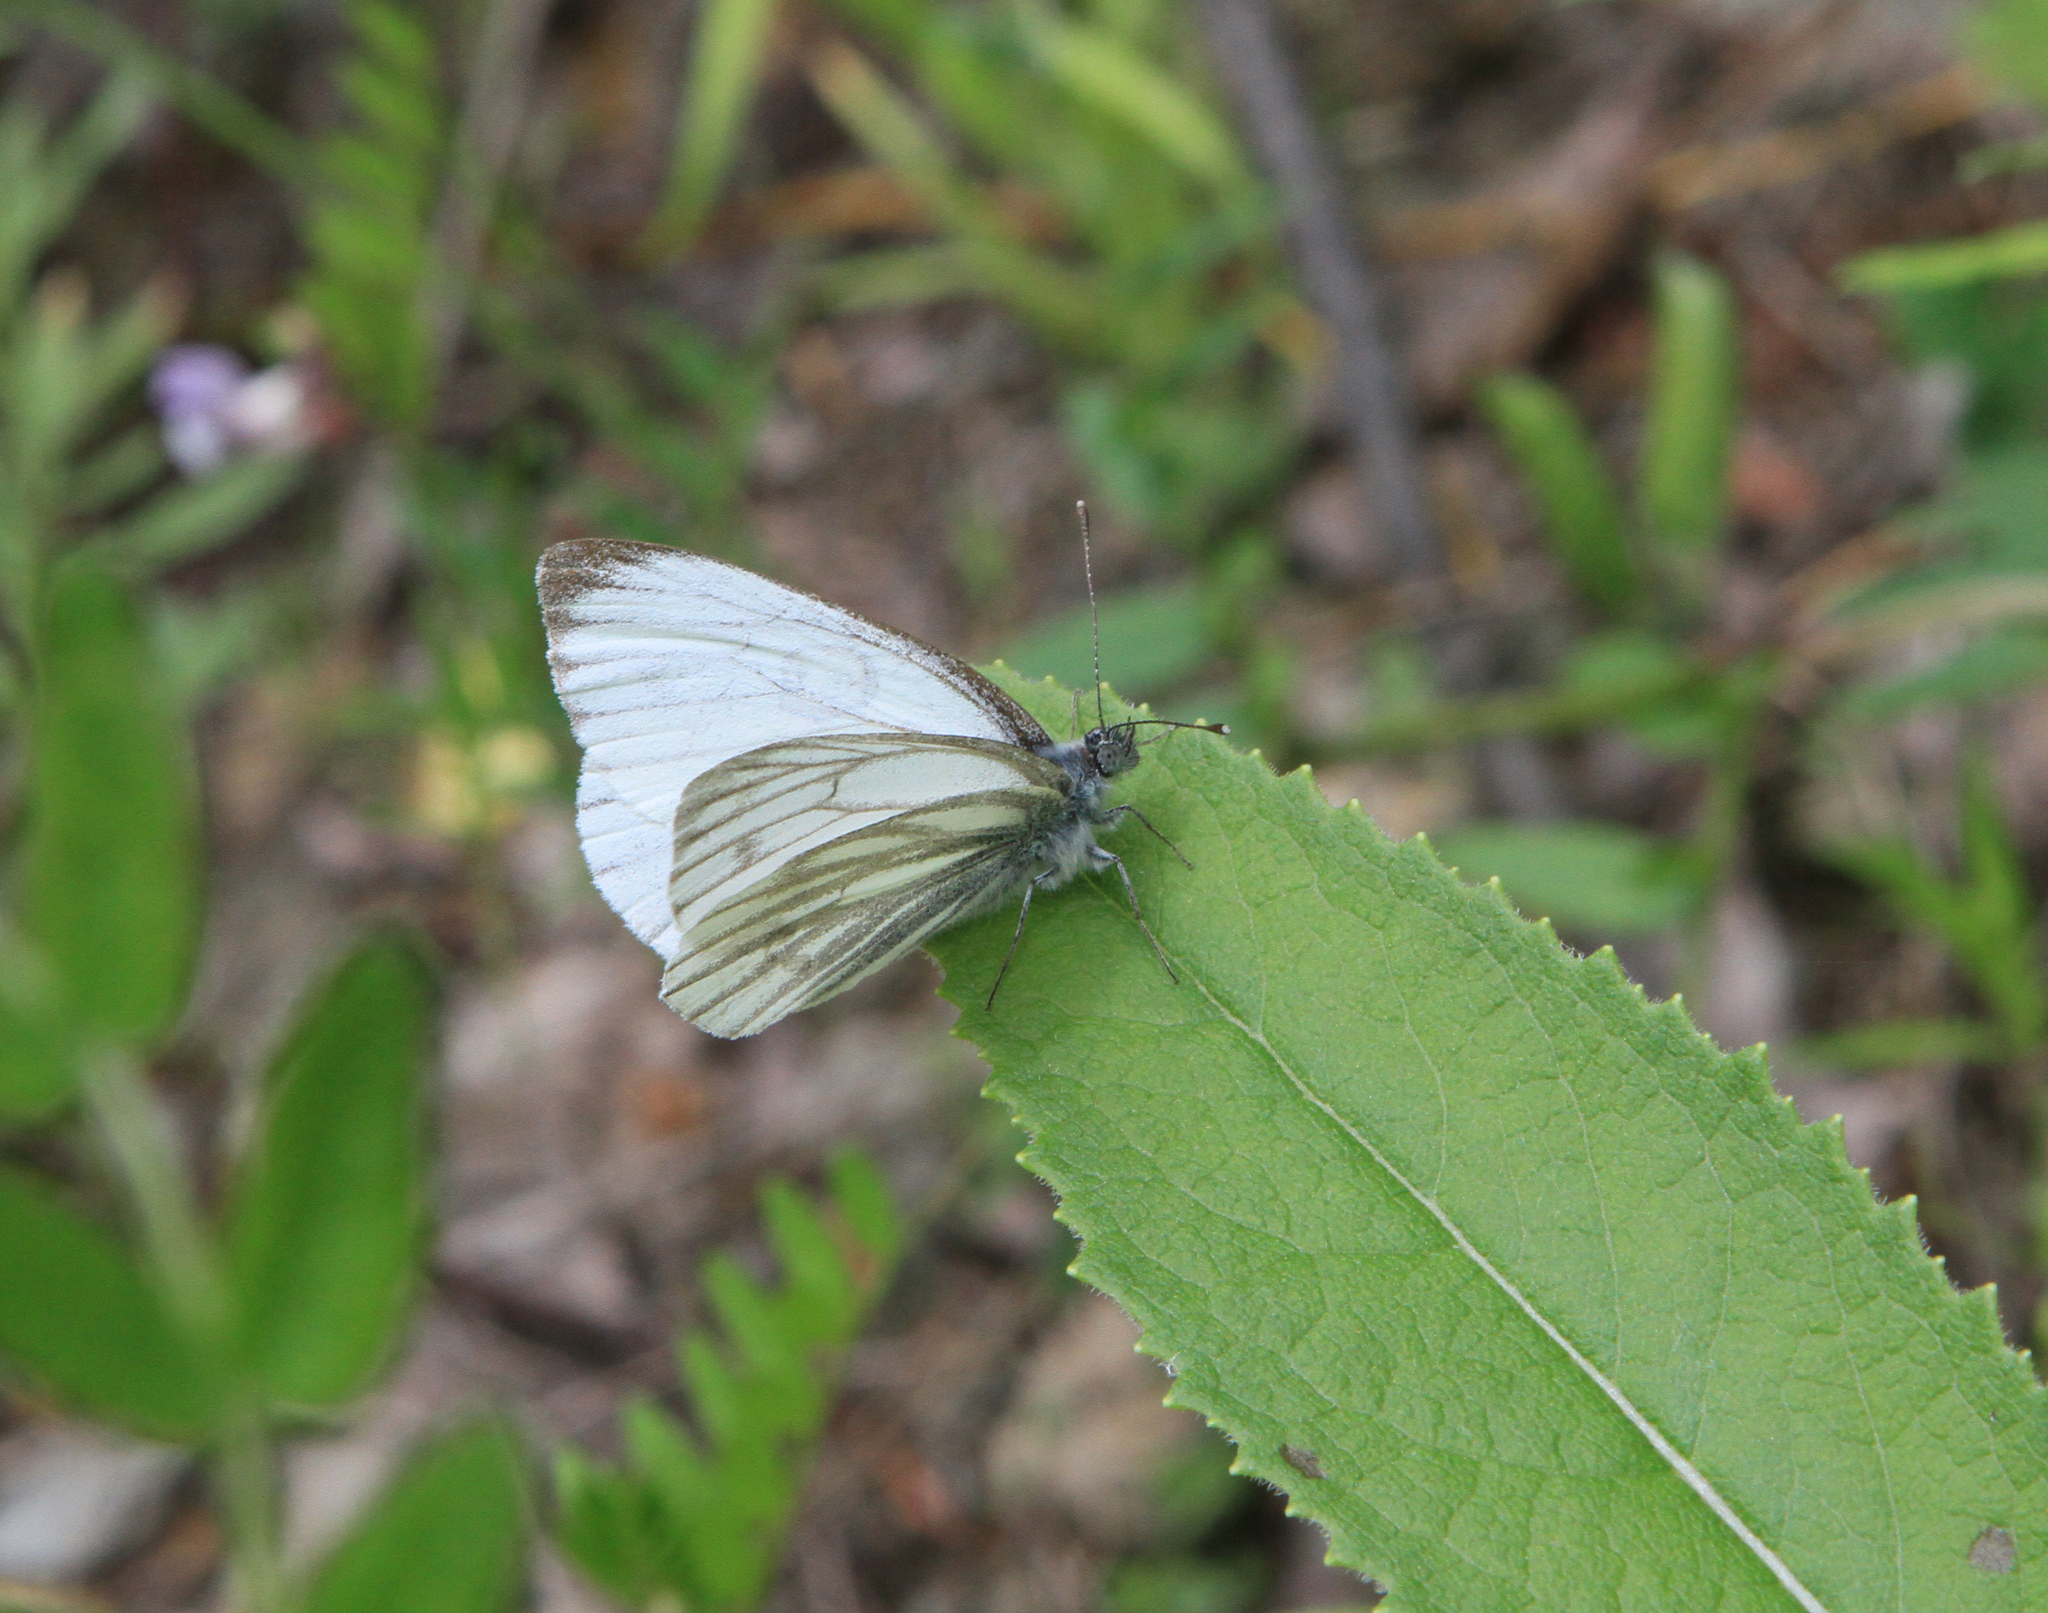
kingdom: Animalia
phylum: Arthropoda
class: Insecta
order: Lepidoptera
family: Pieridae
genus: Pieris
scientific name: Pieris napi
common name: Green-veined white
